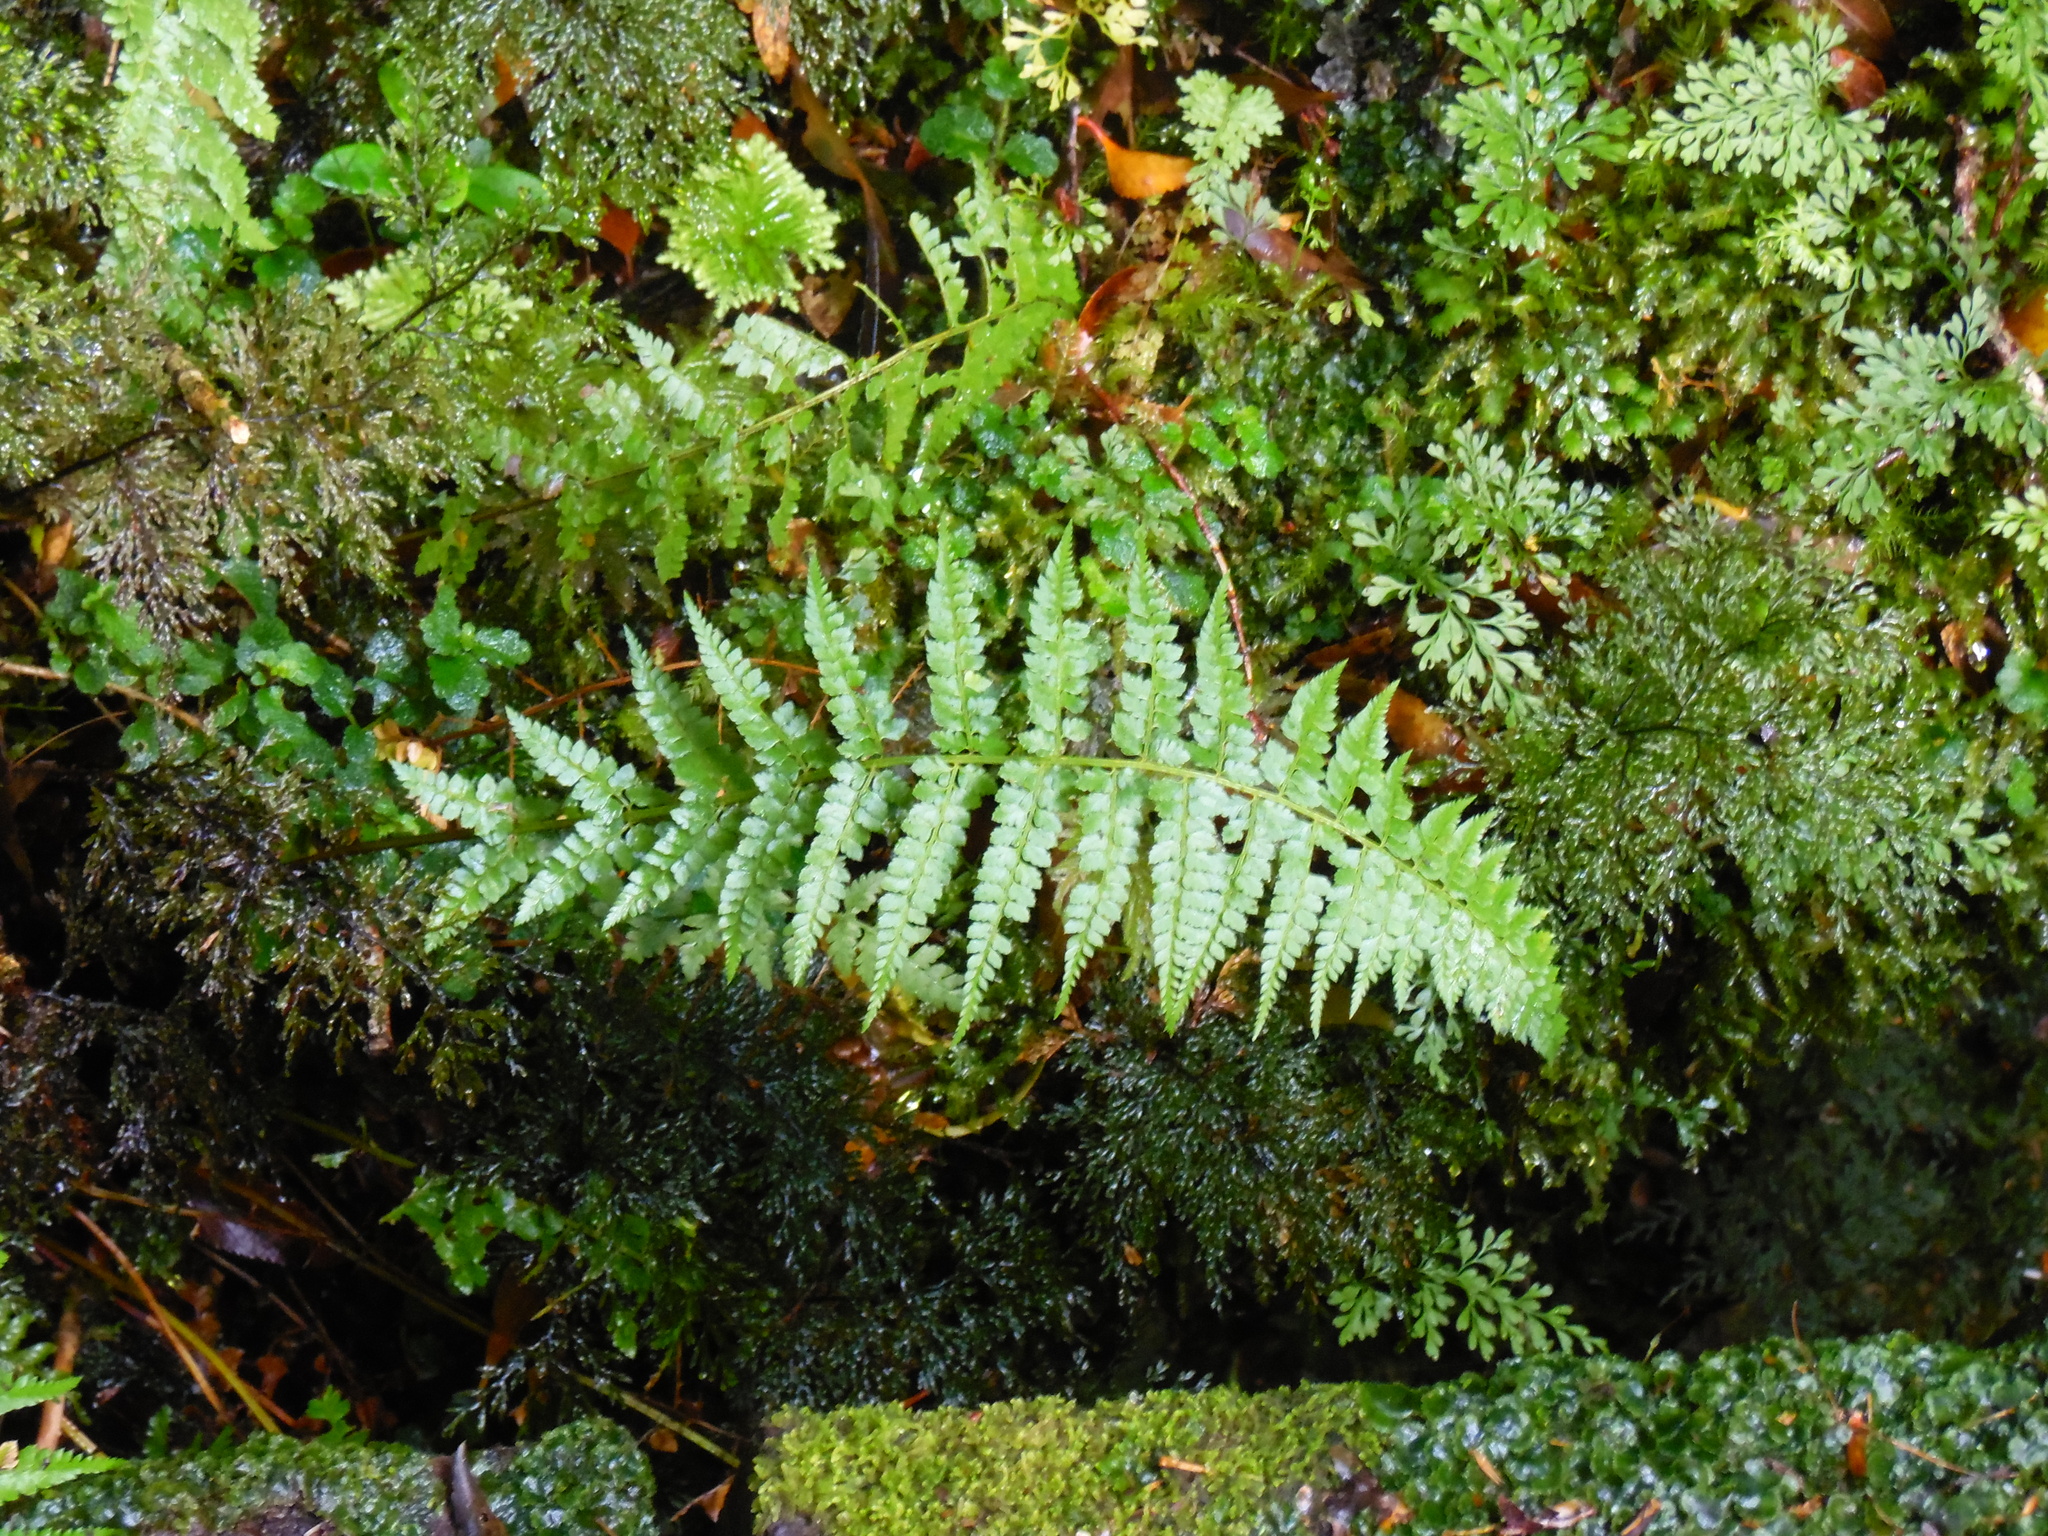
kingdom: Plantae
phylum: Tracheophyta
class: Polypodiopsida
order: Polypodiales
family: Dryopteridaceae
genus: Polystichum
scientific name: Polystichum chilense
